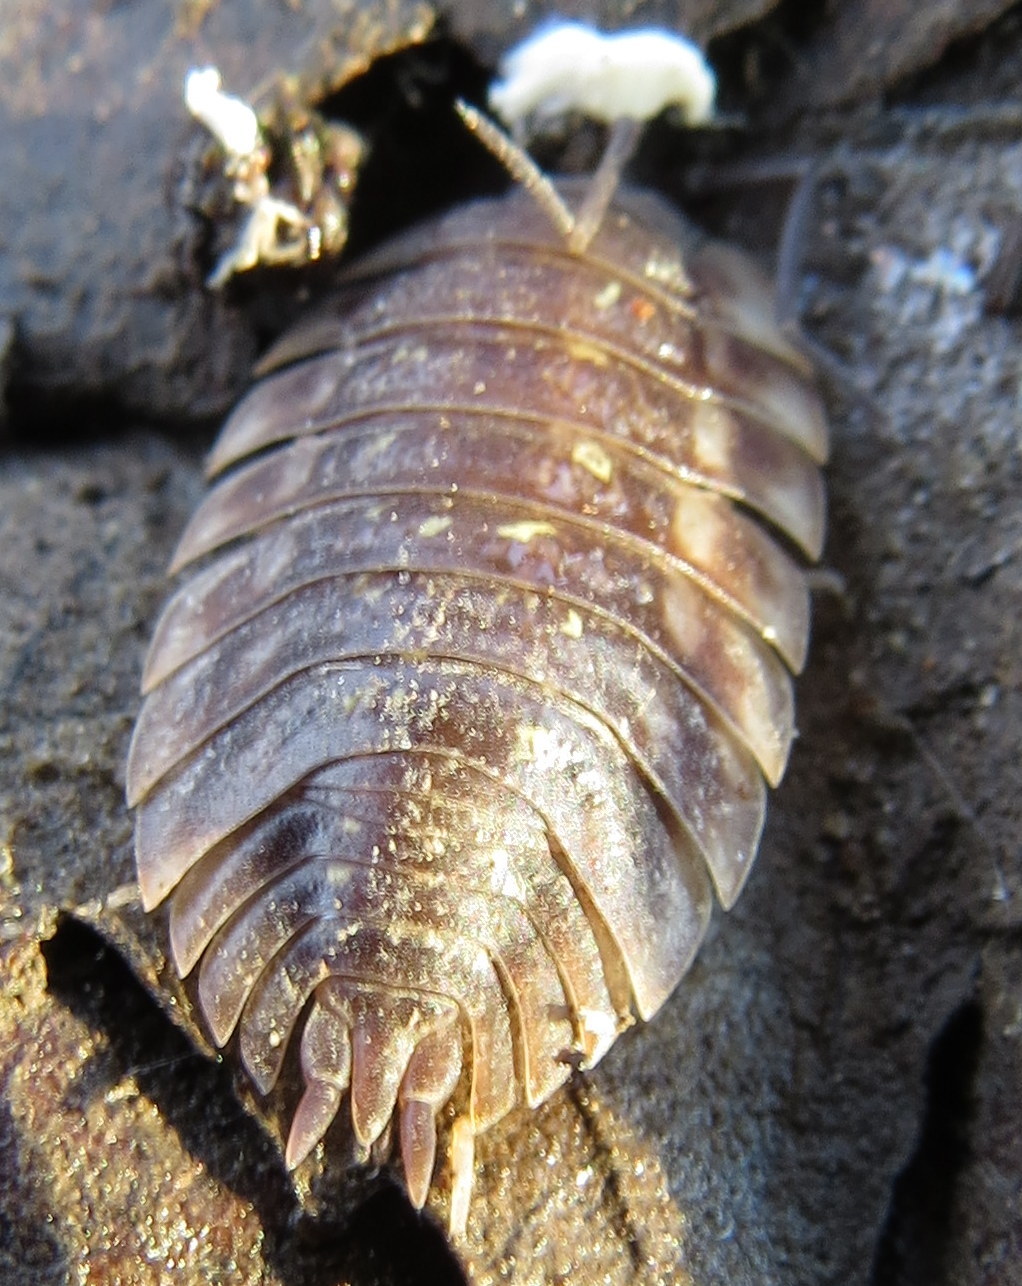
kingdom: Animalia
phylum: Arthropoda
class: Malacostraca
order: Isopoda
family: Oniscidae
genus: Oniscus
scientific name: Oniscus asellus
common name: Common shiny woodlouse
